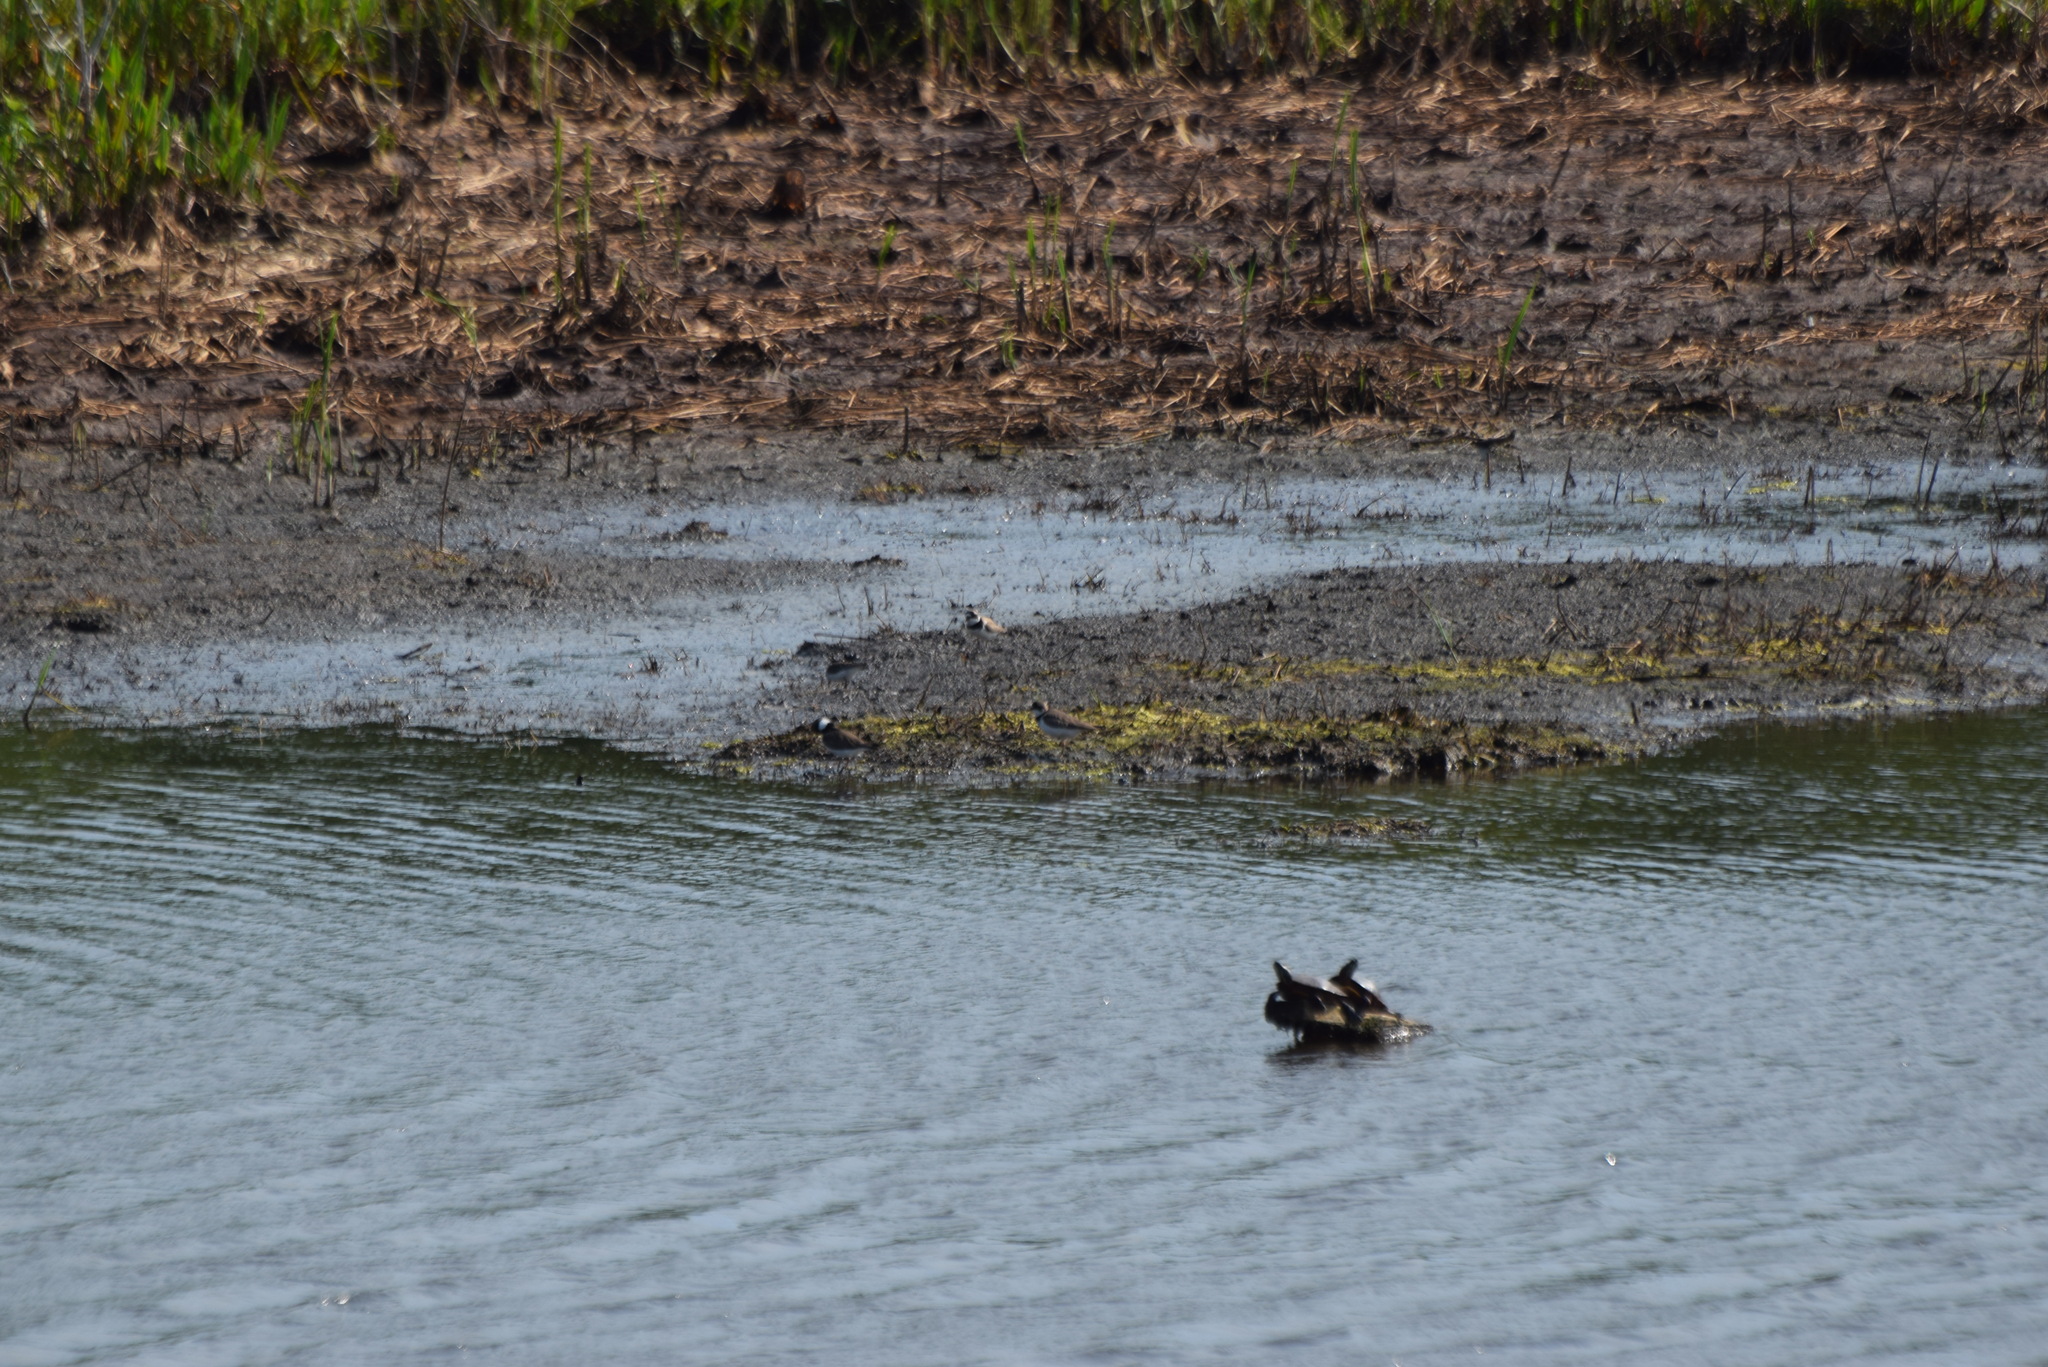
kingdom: Animalia
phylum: Chordata
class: Aves
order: Charadriiformes
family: Charadriidae
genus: Charadrius
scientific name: Charadrius semipalmatus
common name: Semipalmated plover
